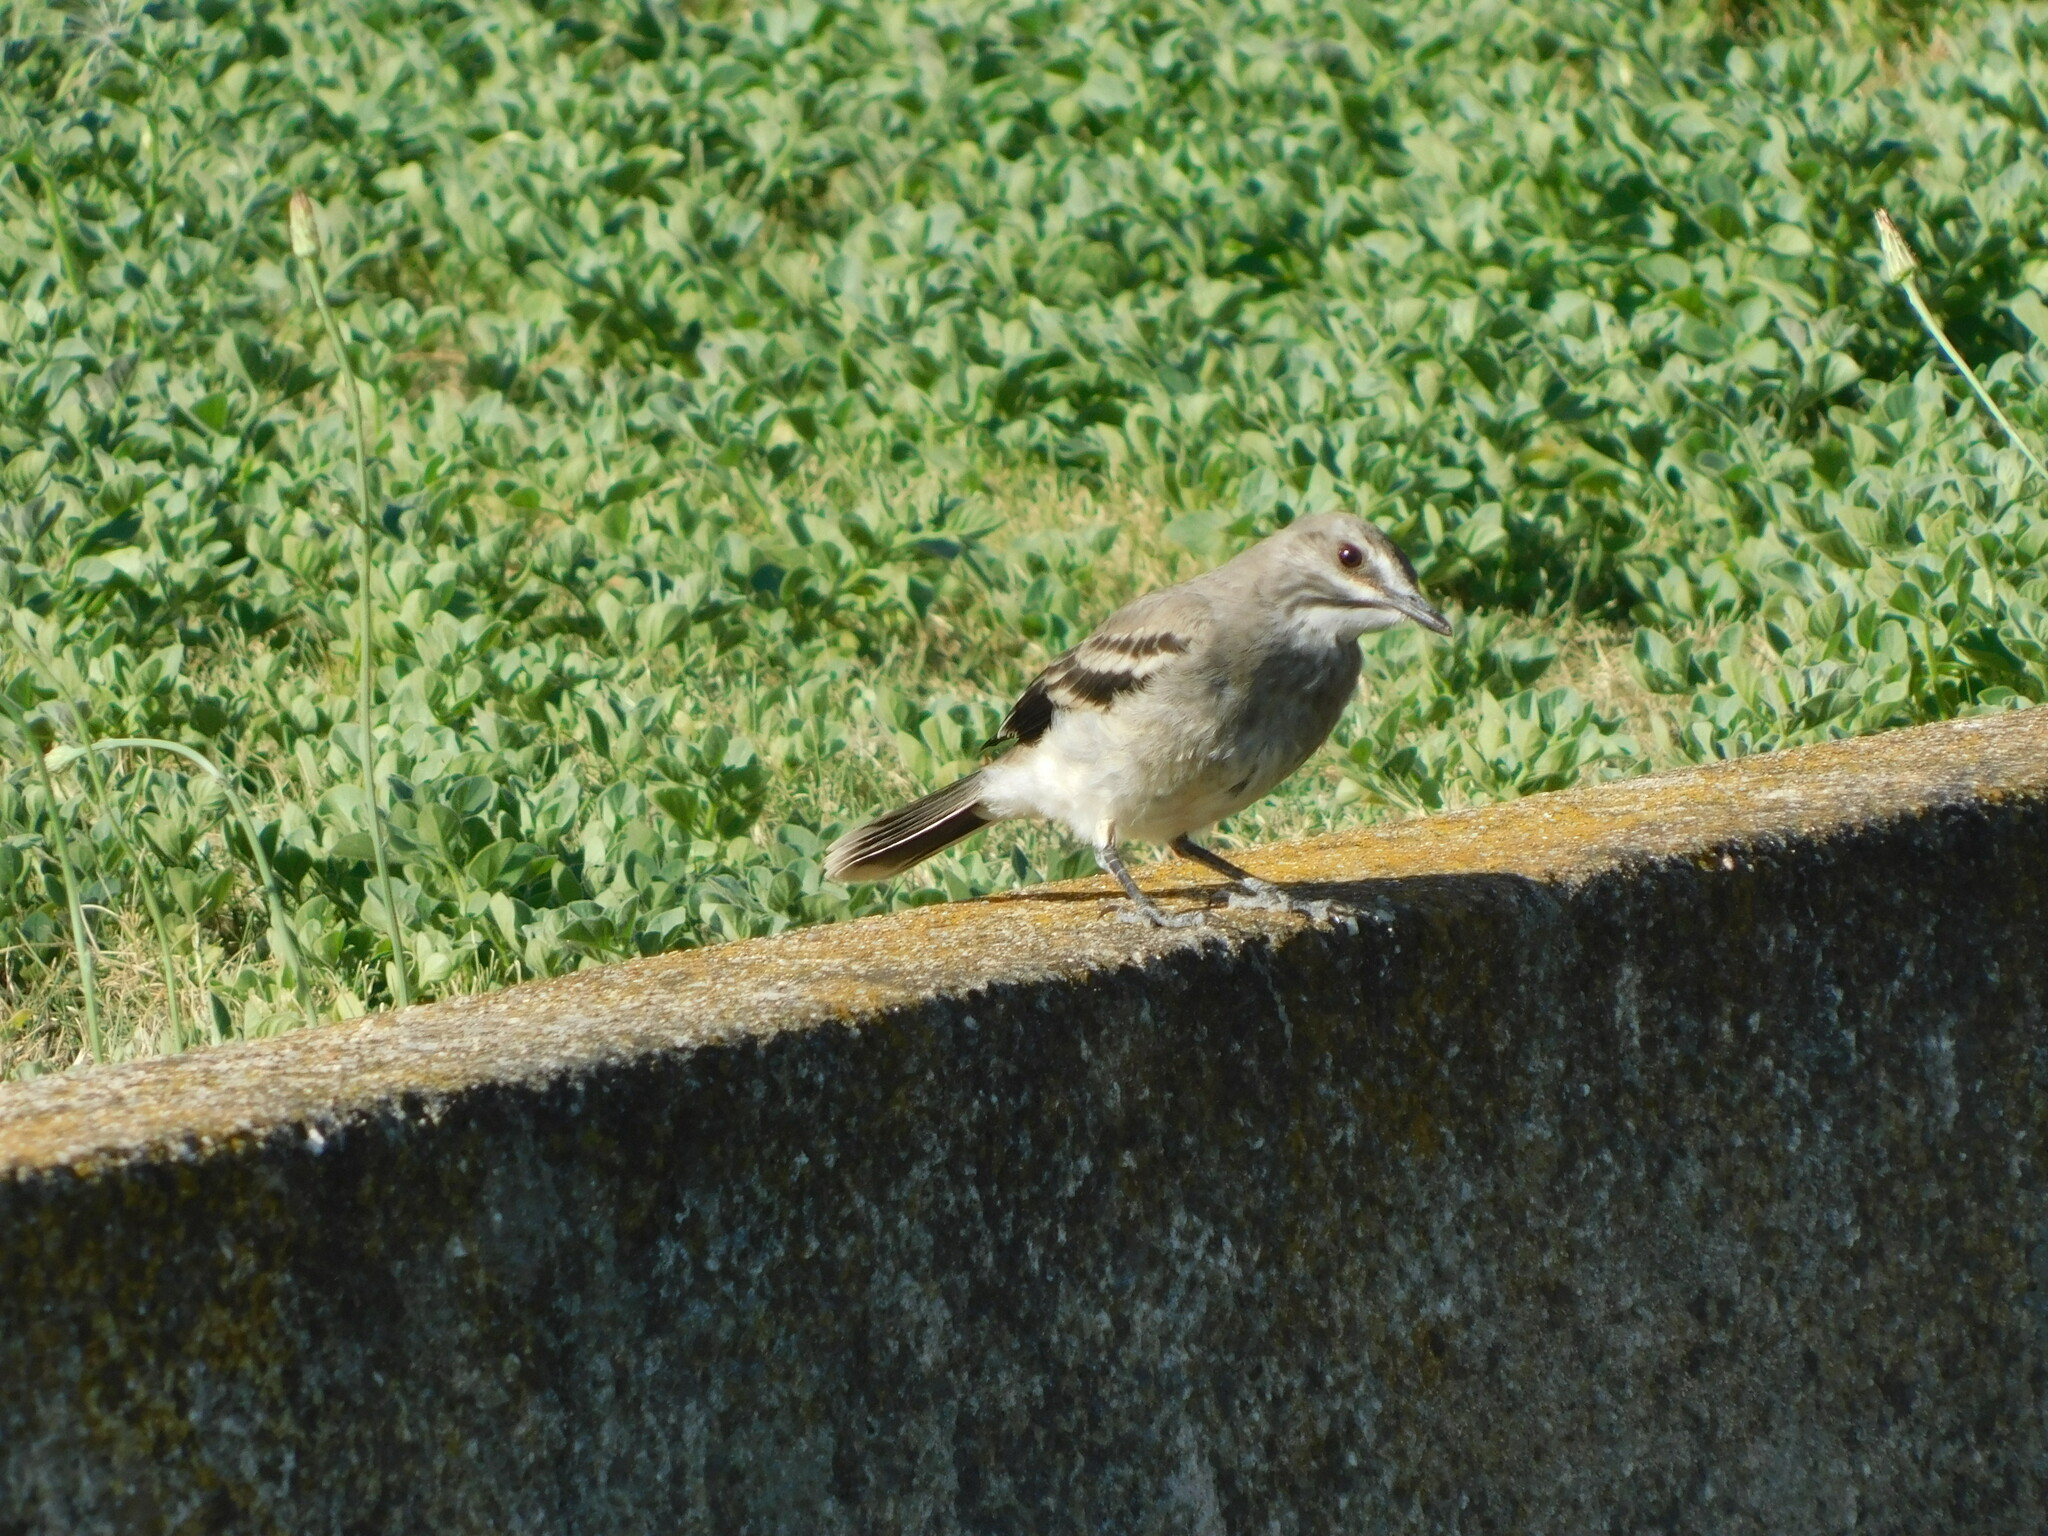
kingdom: Animalia
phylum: Chordata
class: Aves
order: Passeriformes
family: Tyrannidae
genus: Xolmis
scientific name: Xolmis cinereus
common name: Grey monjita
